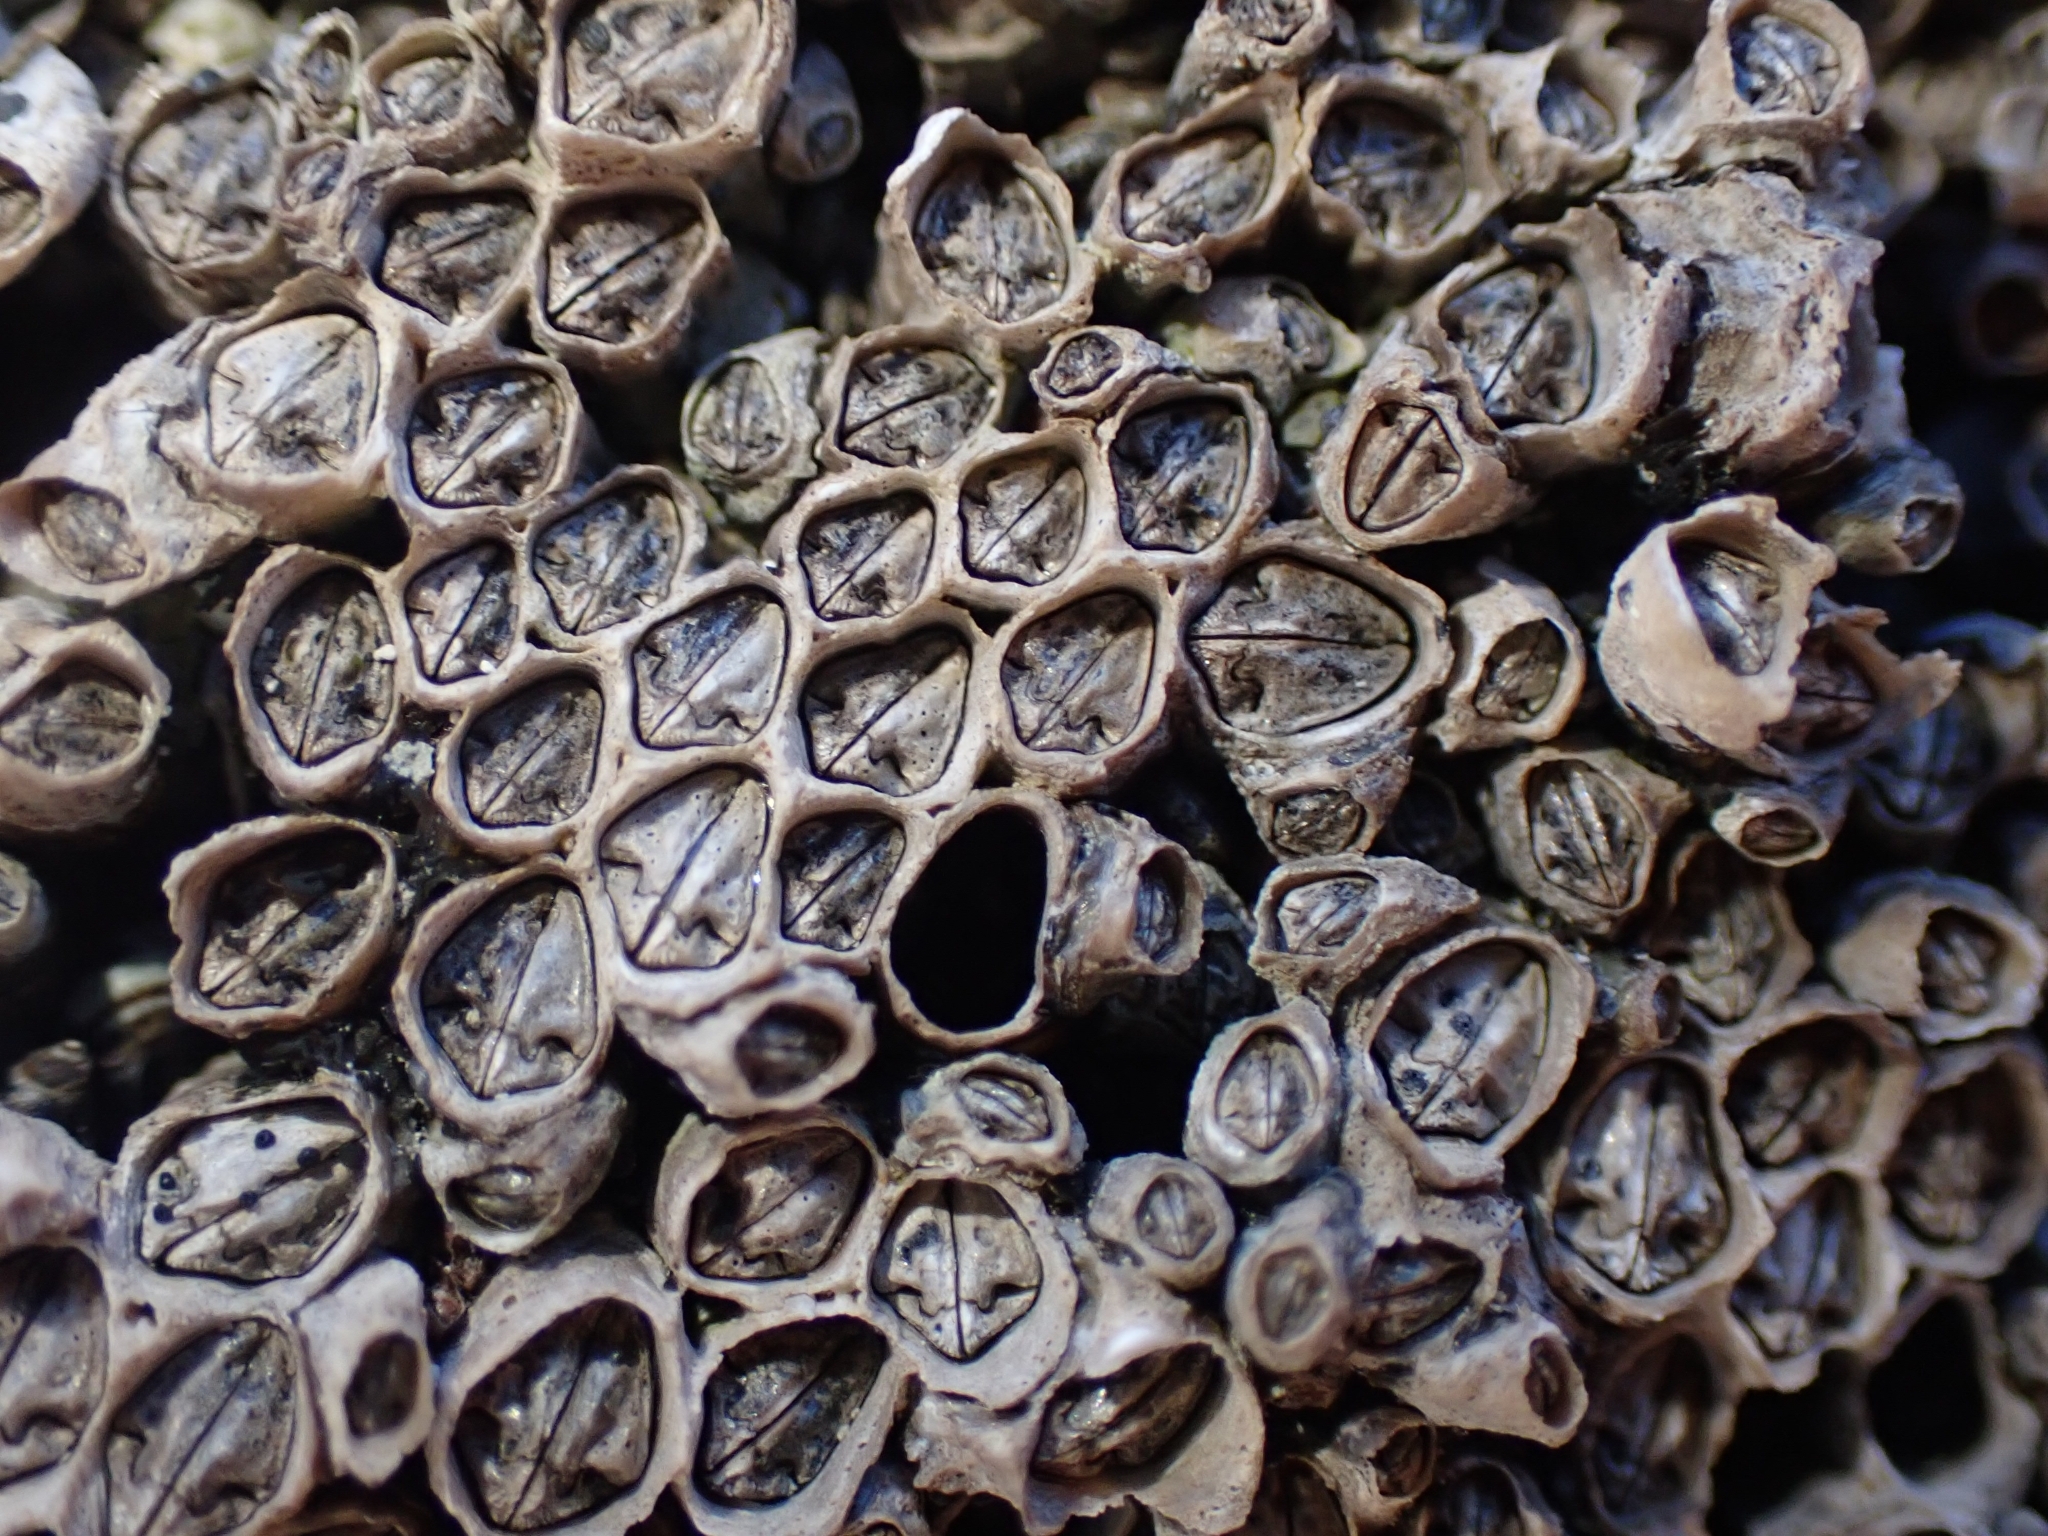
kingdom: Animalia
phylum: Arthropoda
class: Maxillopoda
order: Sessilia
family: Chthamalidae
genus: Chamaesipho
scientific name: Chamaesipho columna
